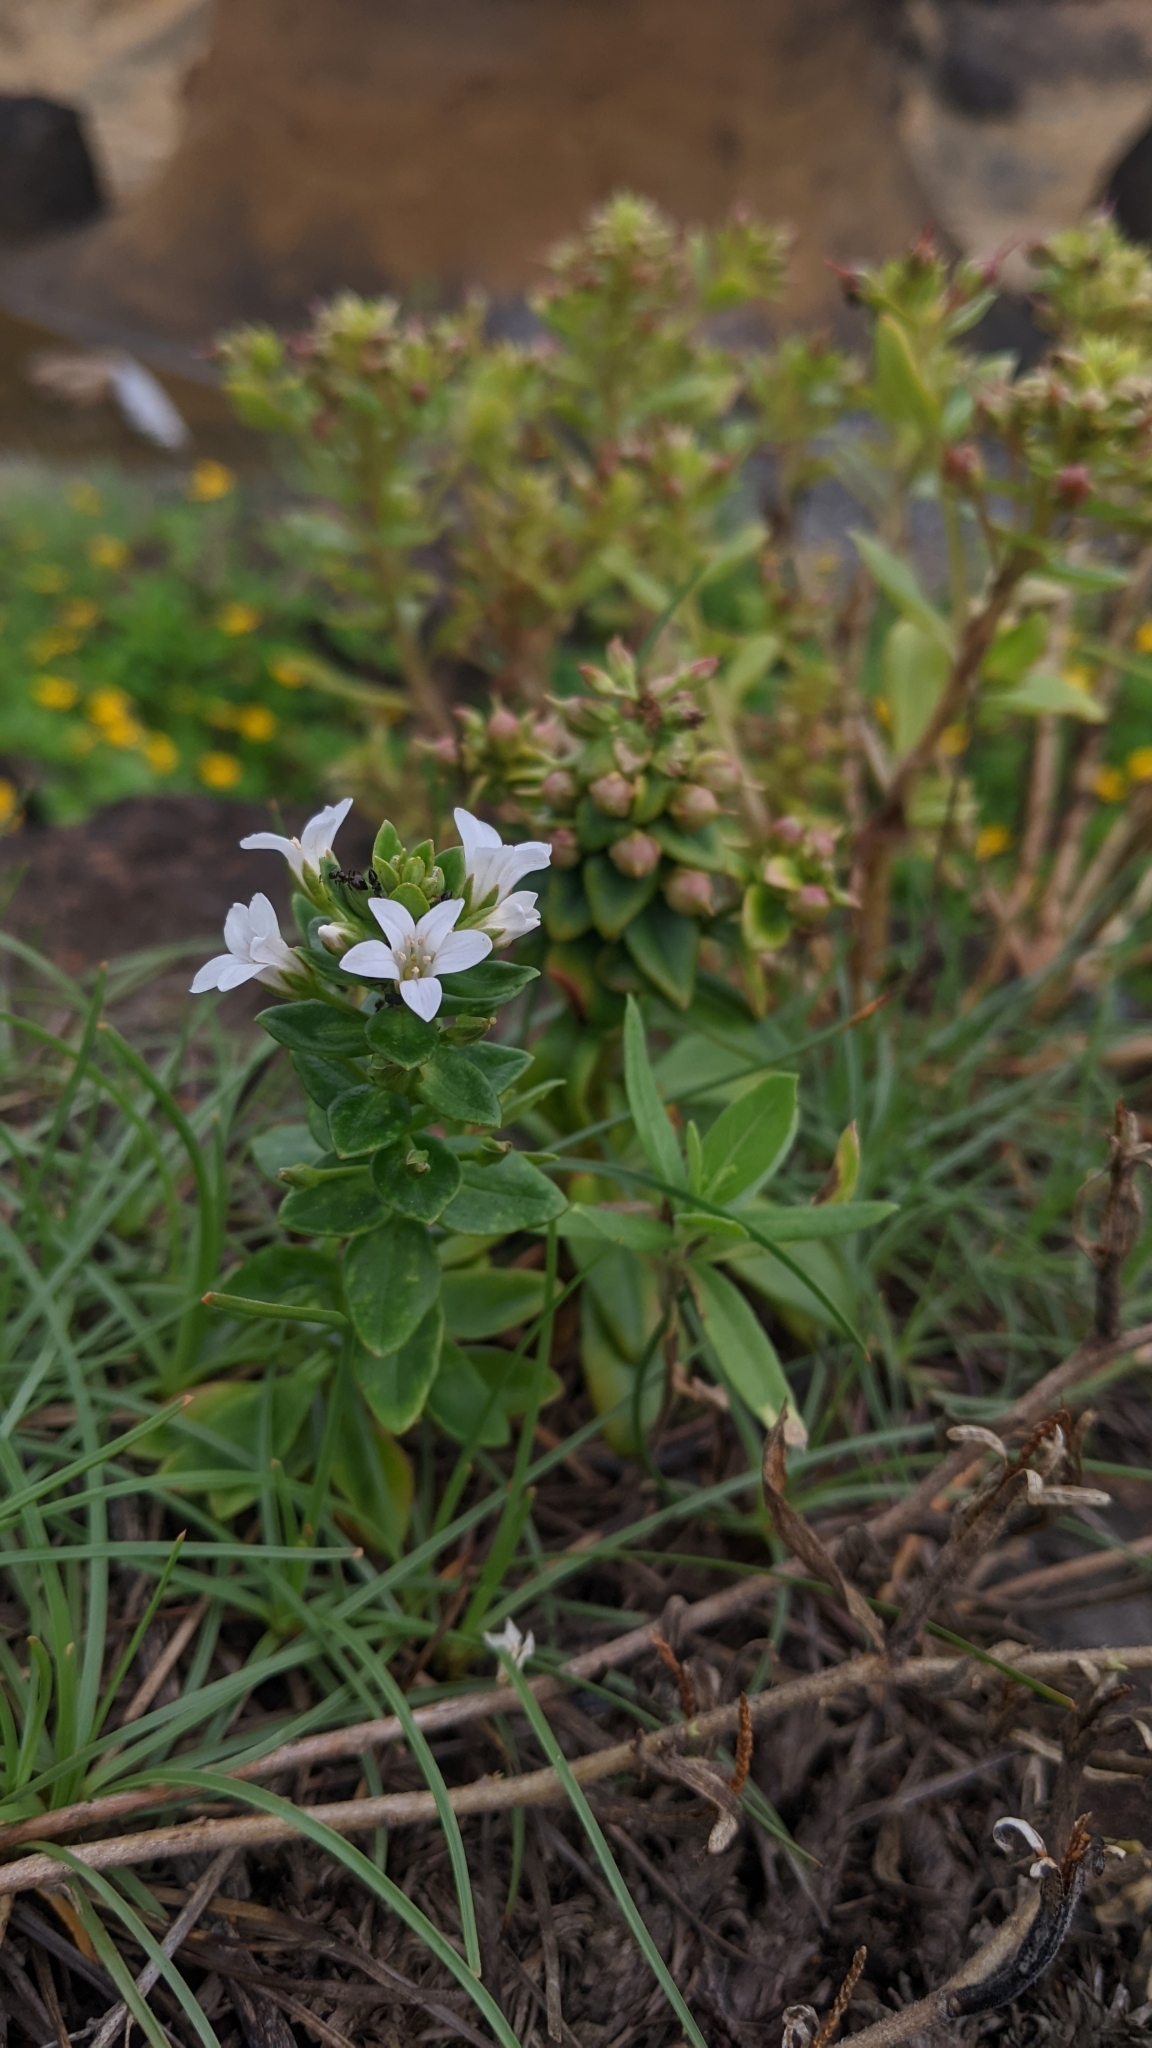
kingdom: Plantae
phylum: Tracheophyta
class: Magnoliopsida
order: Ericales
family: Primulaceae
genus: Lysimachia
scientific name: Lysimachia mauritiana
